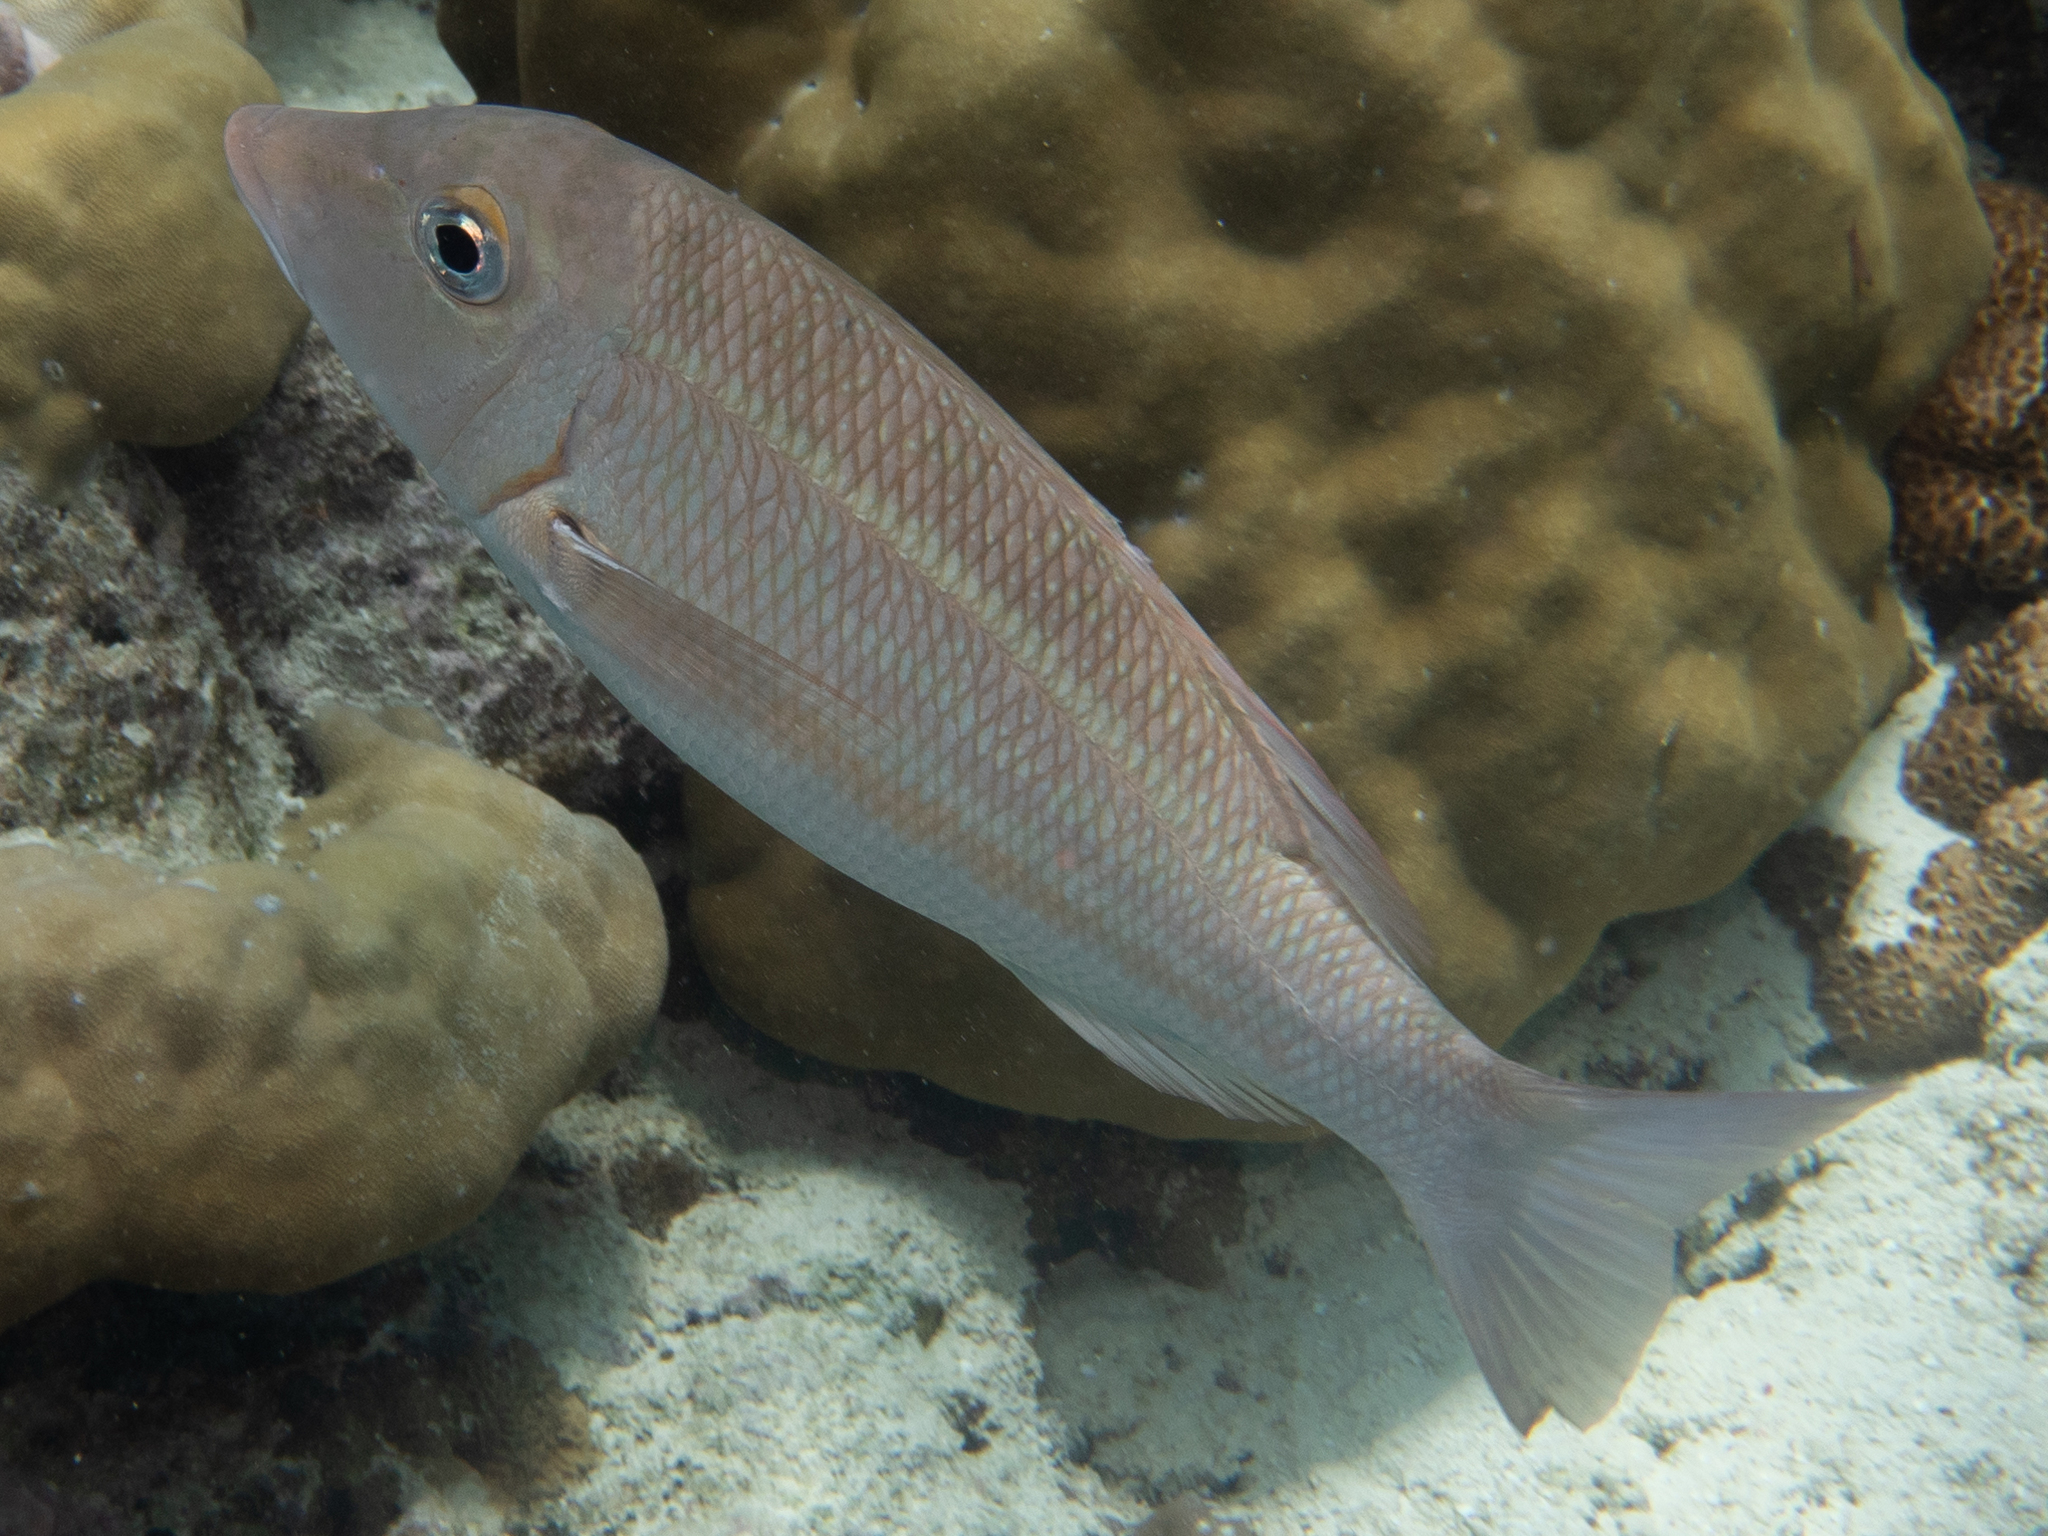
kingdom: Animalia
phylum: Chordata
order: Perciformes
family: Lethrinidae
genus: Lethrinus
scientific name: Lethrinus obsoletus
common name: Orange-striped emperor
